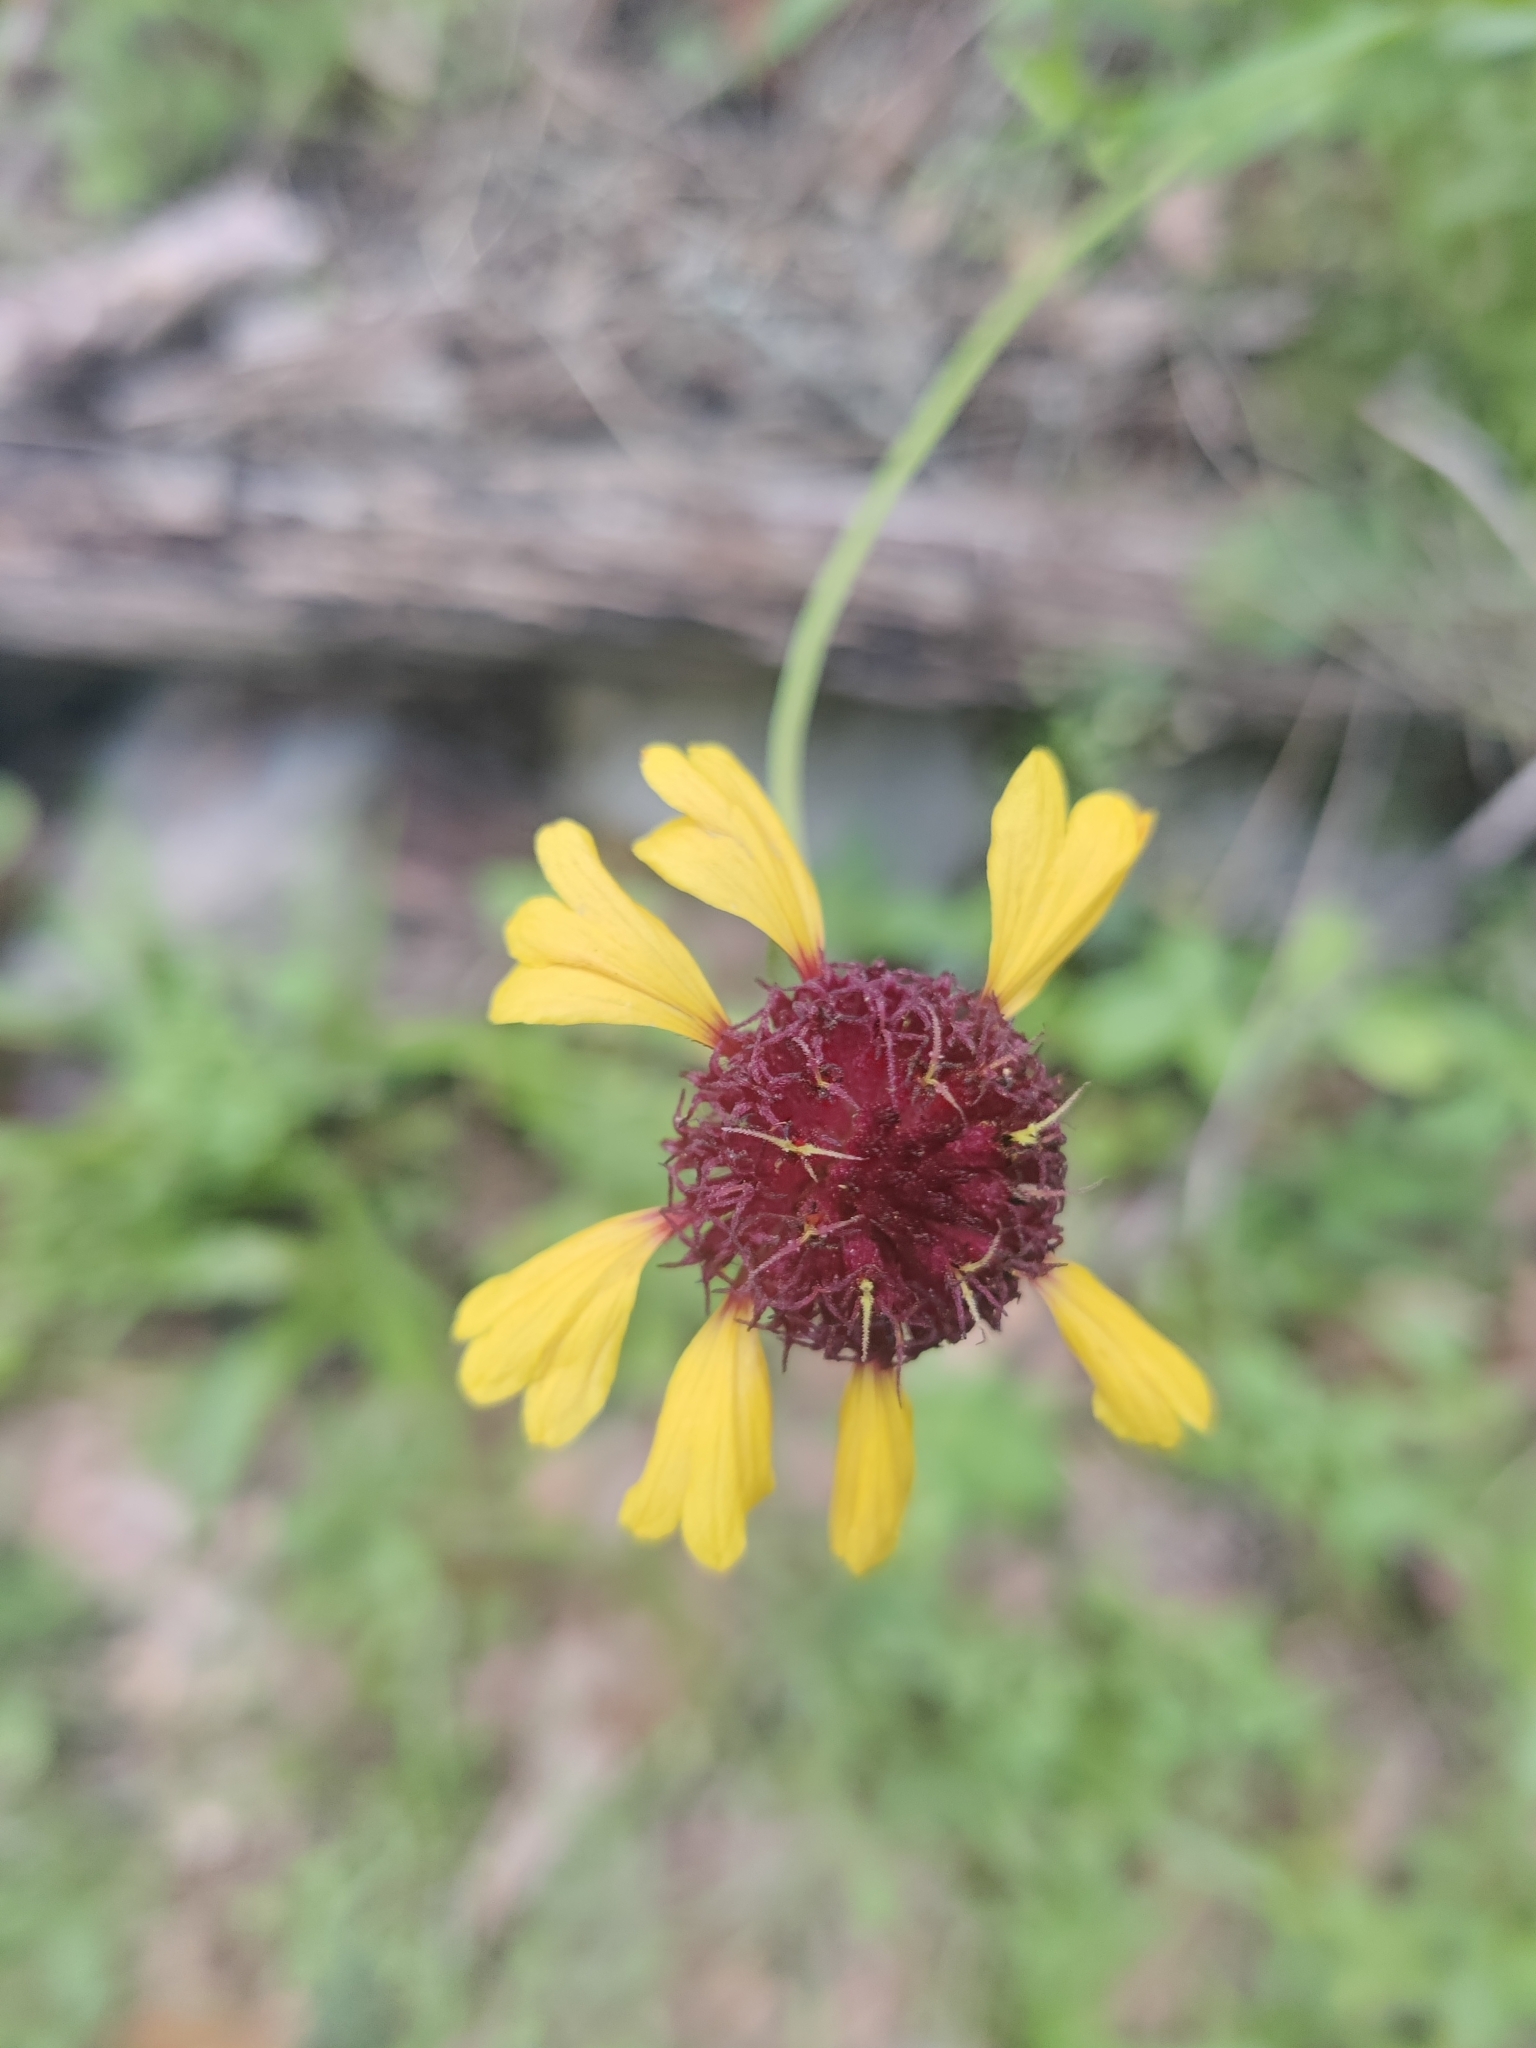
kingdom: Plantae
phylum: Tracheophyta
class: Magnoliopsida
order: Asterales
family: Asteraceae
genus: Gaillardia
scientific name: Gaillardia aestivalis
